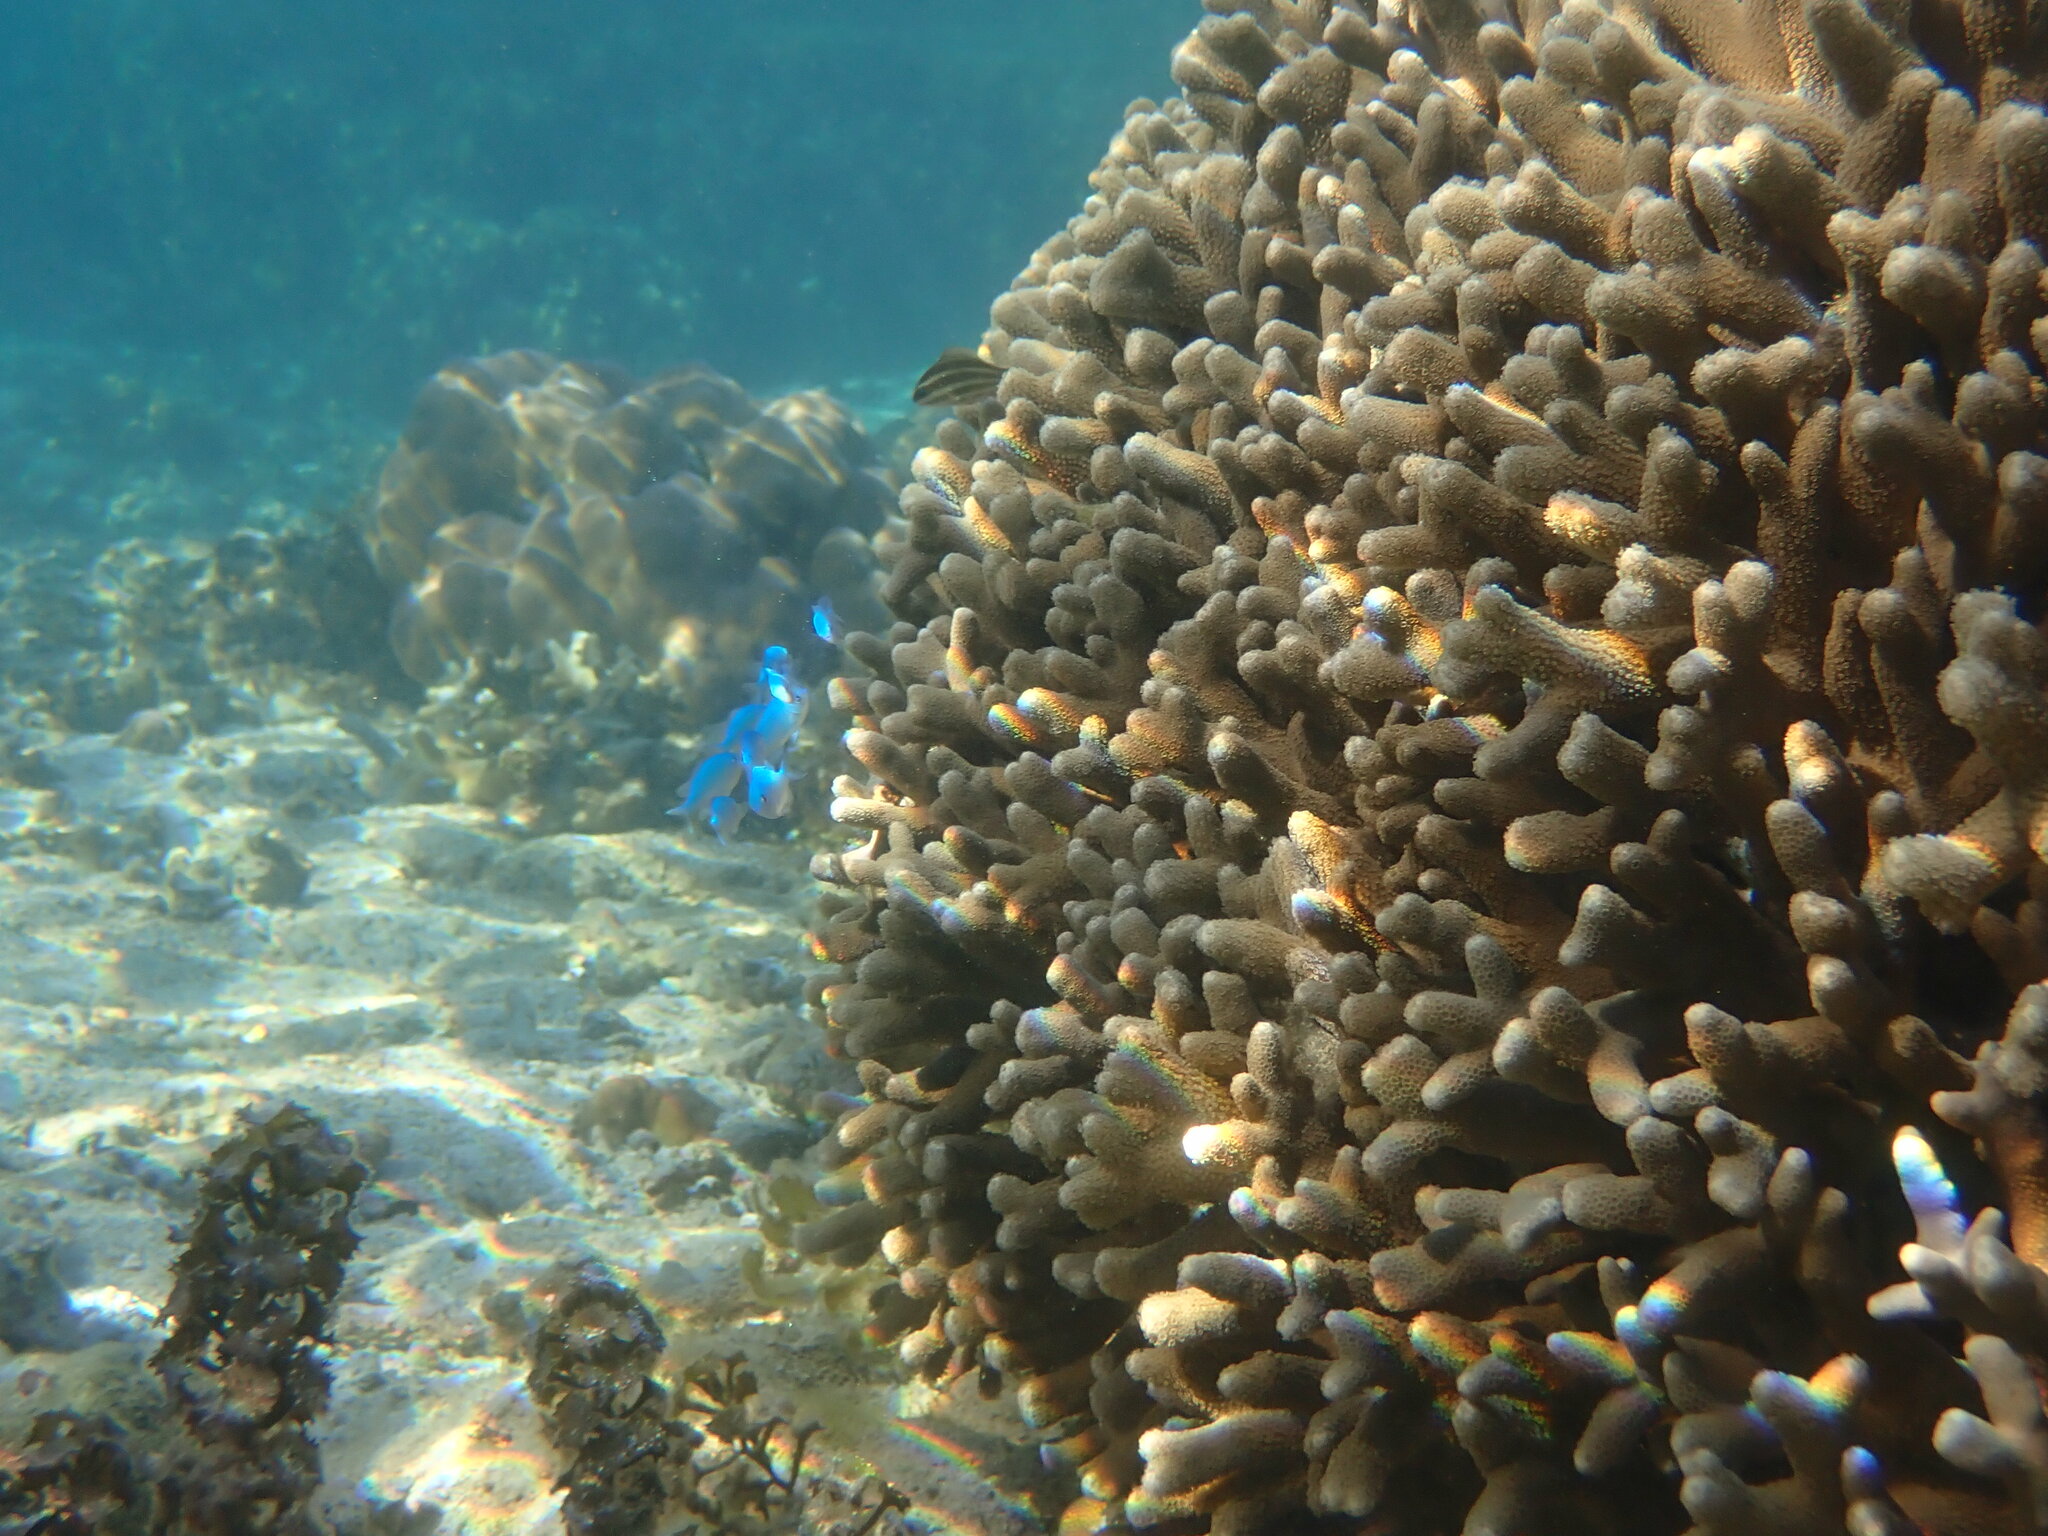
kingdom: Animalia
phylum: Chordata
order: Perciformes
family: Pomacentridae
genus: Chromis
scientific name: Chromis viridis
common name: Blue-green chromis
